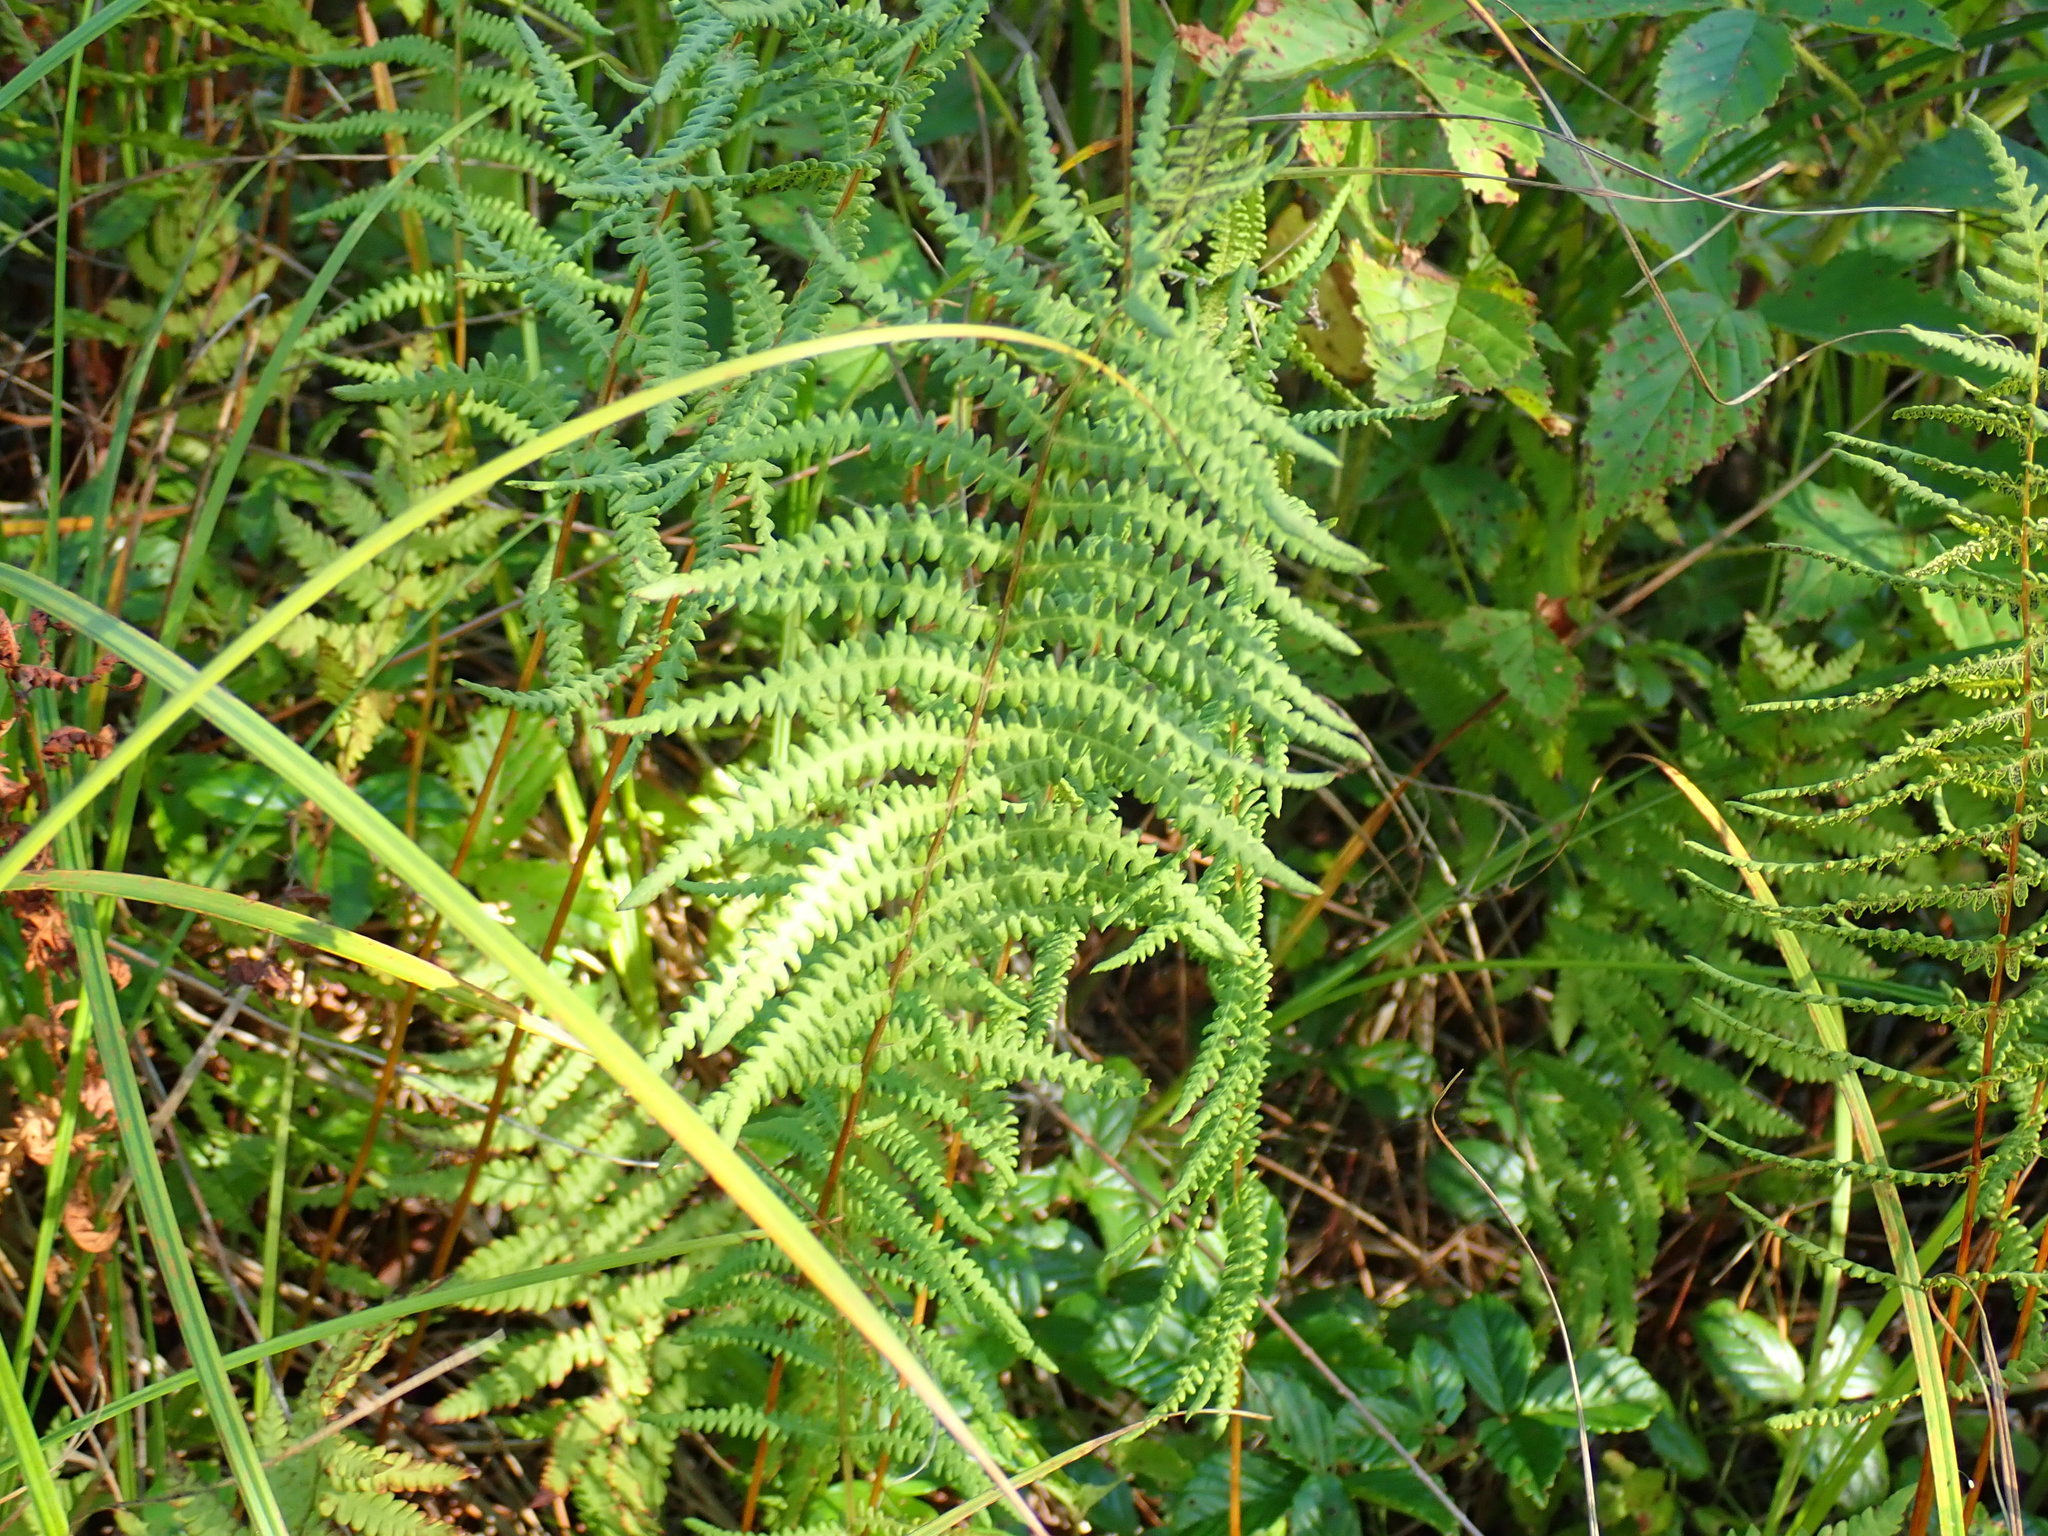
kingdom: Plantae
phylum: Tracheophyta
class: Polypodiopsida
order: Polypodiales
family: Thelypteridaceae
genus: Thelypteris
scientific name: Thelypteris palustris
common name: Marsh fern
